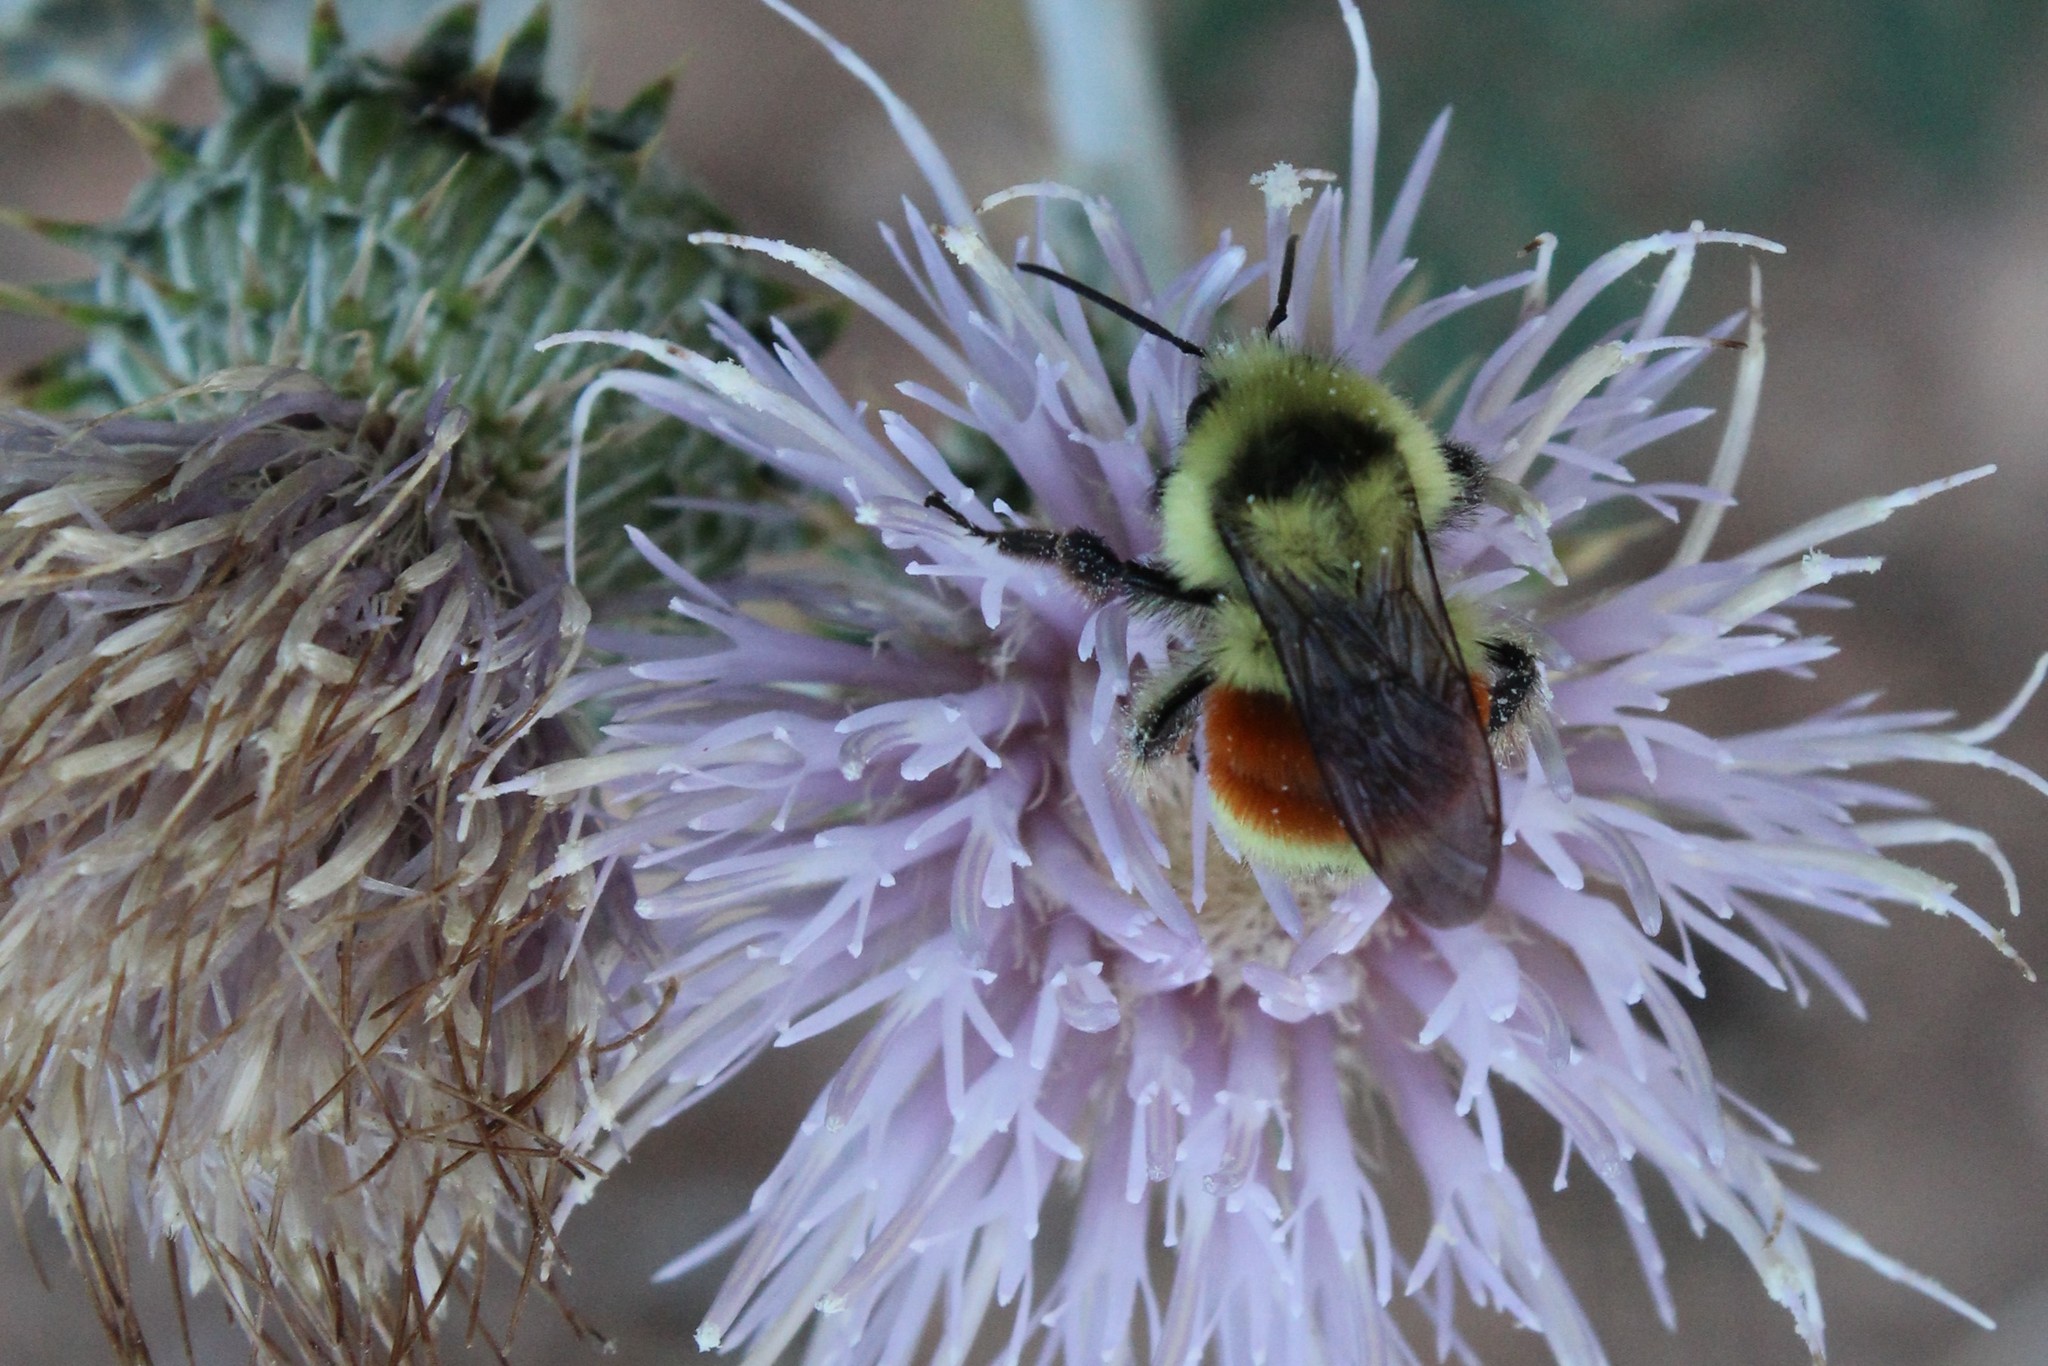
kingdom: Animalia
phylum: Arthropoda
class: Insecta
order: Hymenoptera
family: Apidae
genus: Bombus
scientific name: Bombus huntii
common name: Hunt bumble bee
